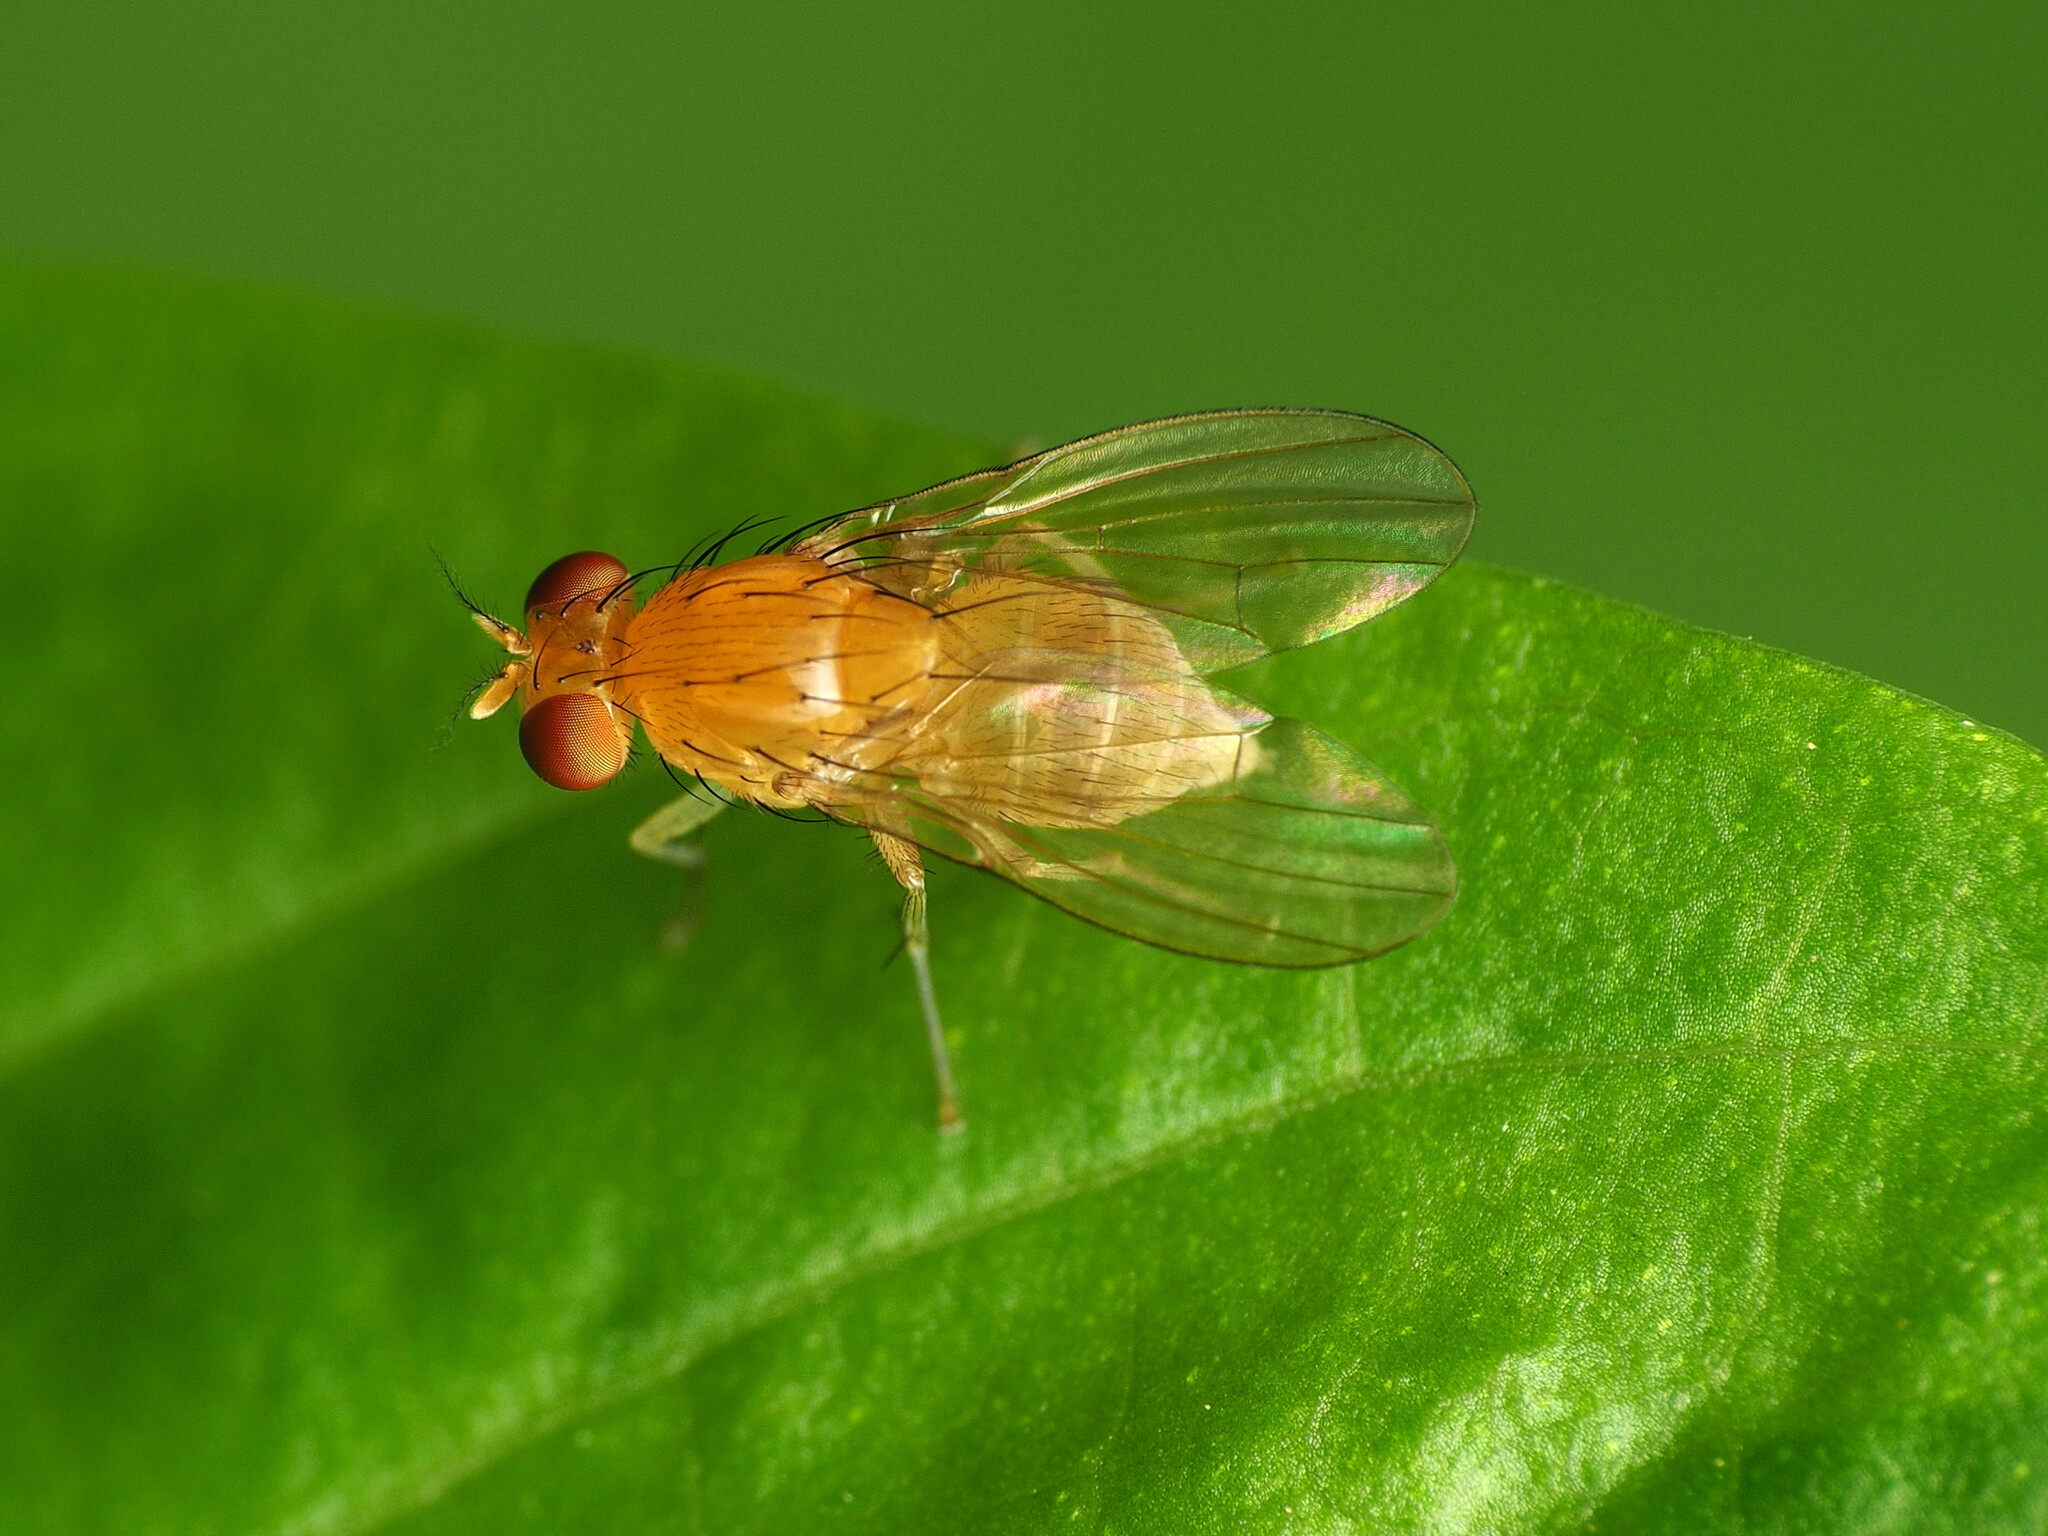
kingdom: Animalia
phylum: Arthropoda
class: Insecta
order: Diptera
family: Lauxaniidae
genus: Neogriphoneura
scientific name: Neogriphoneura sordida
